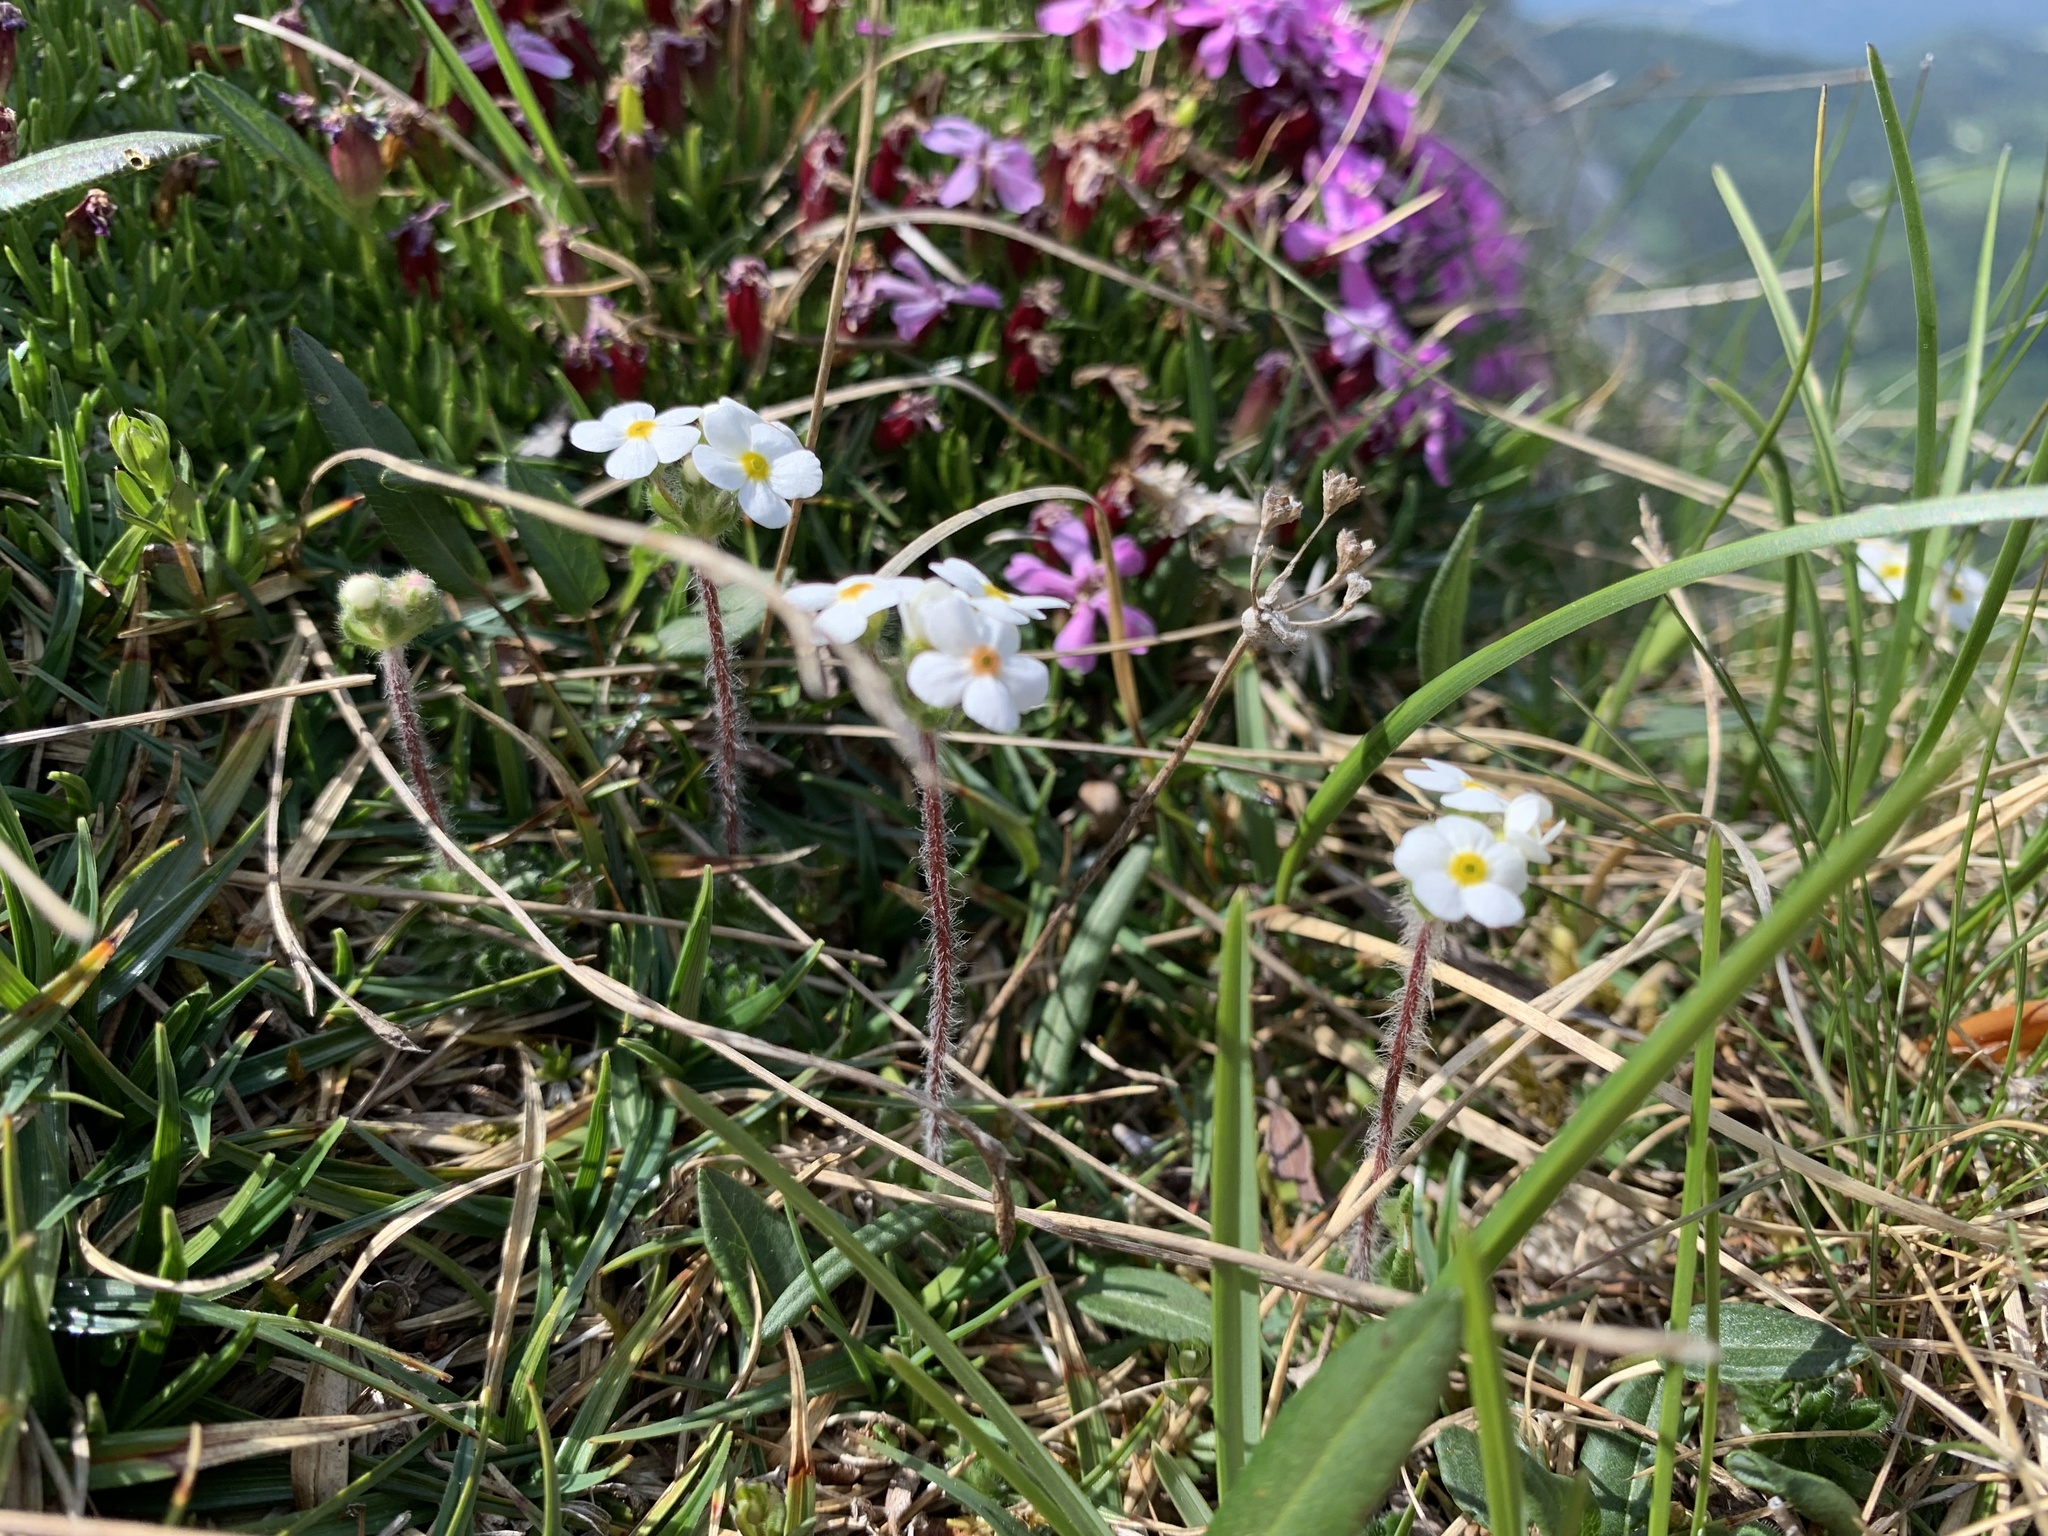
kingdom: Plantae
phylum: Tracheophyta
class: Magnoliopsida
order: Ericales
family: Primulaceae
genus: Androsace
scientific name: Androsace chamaejasme
